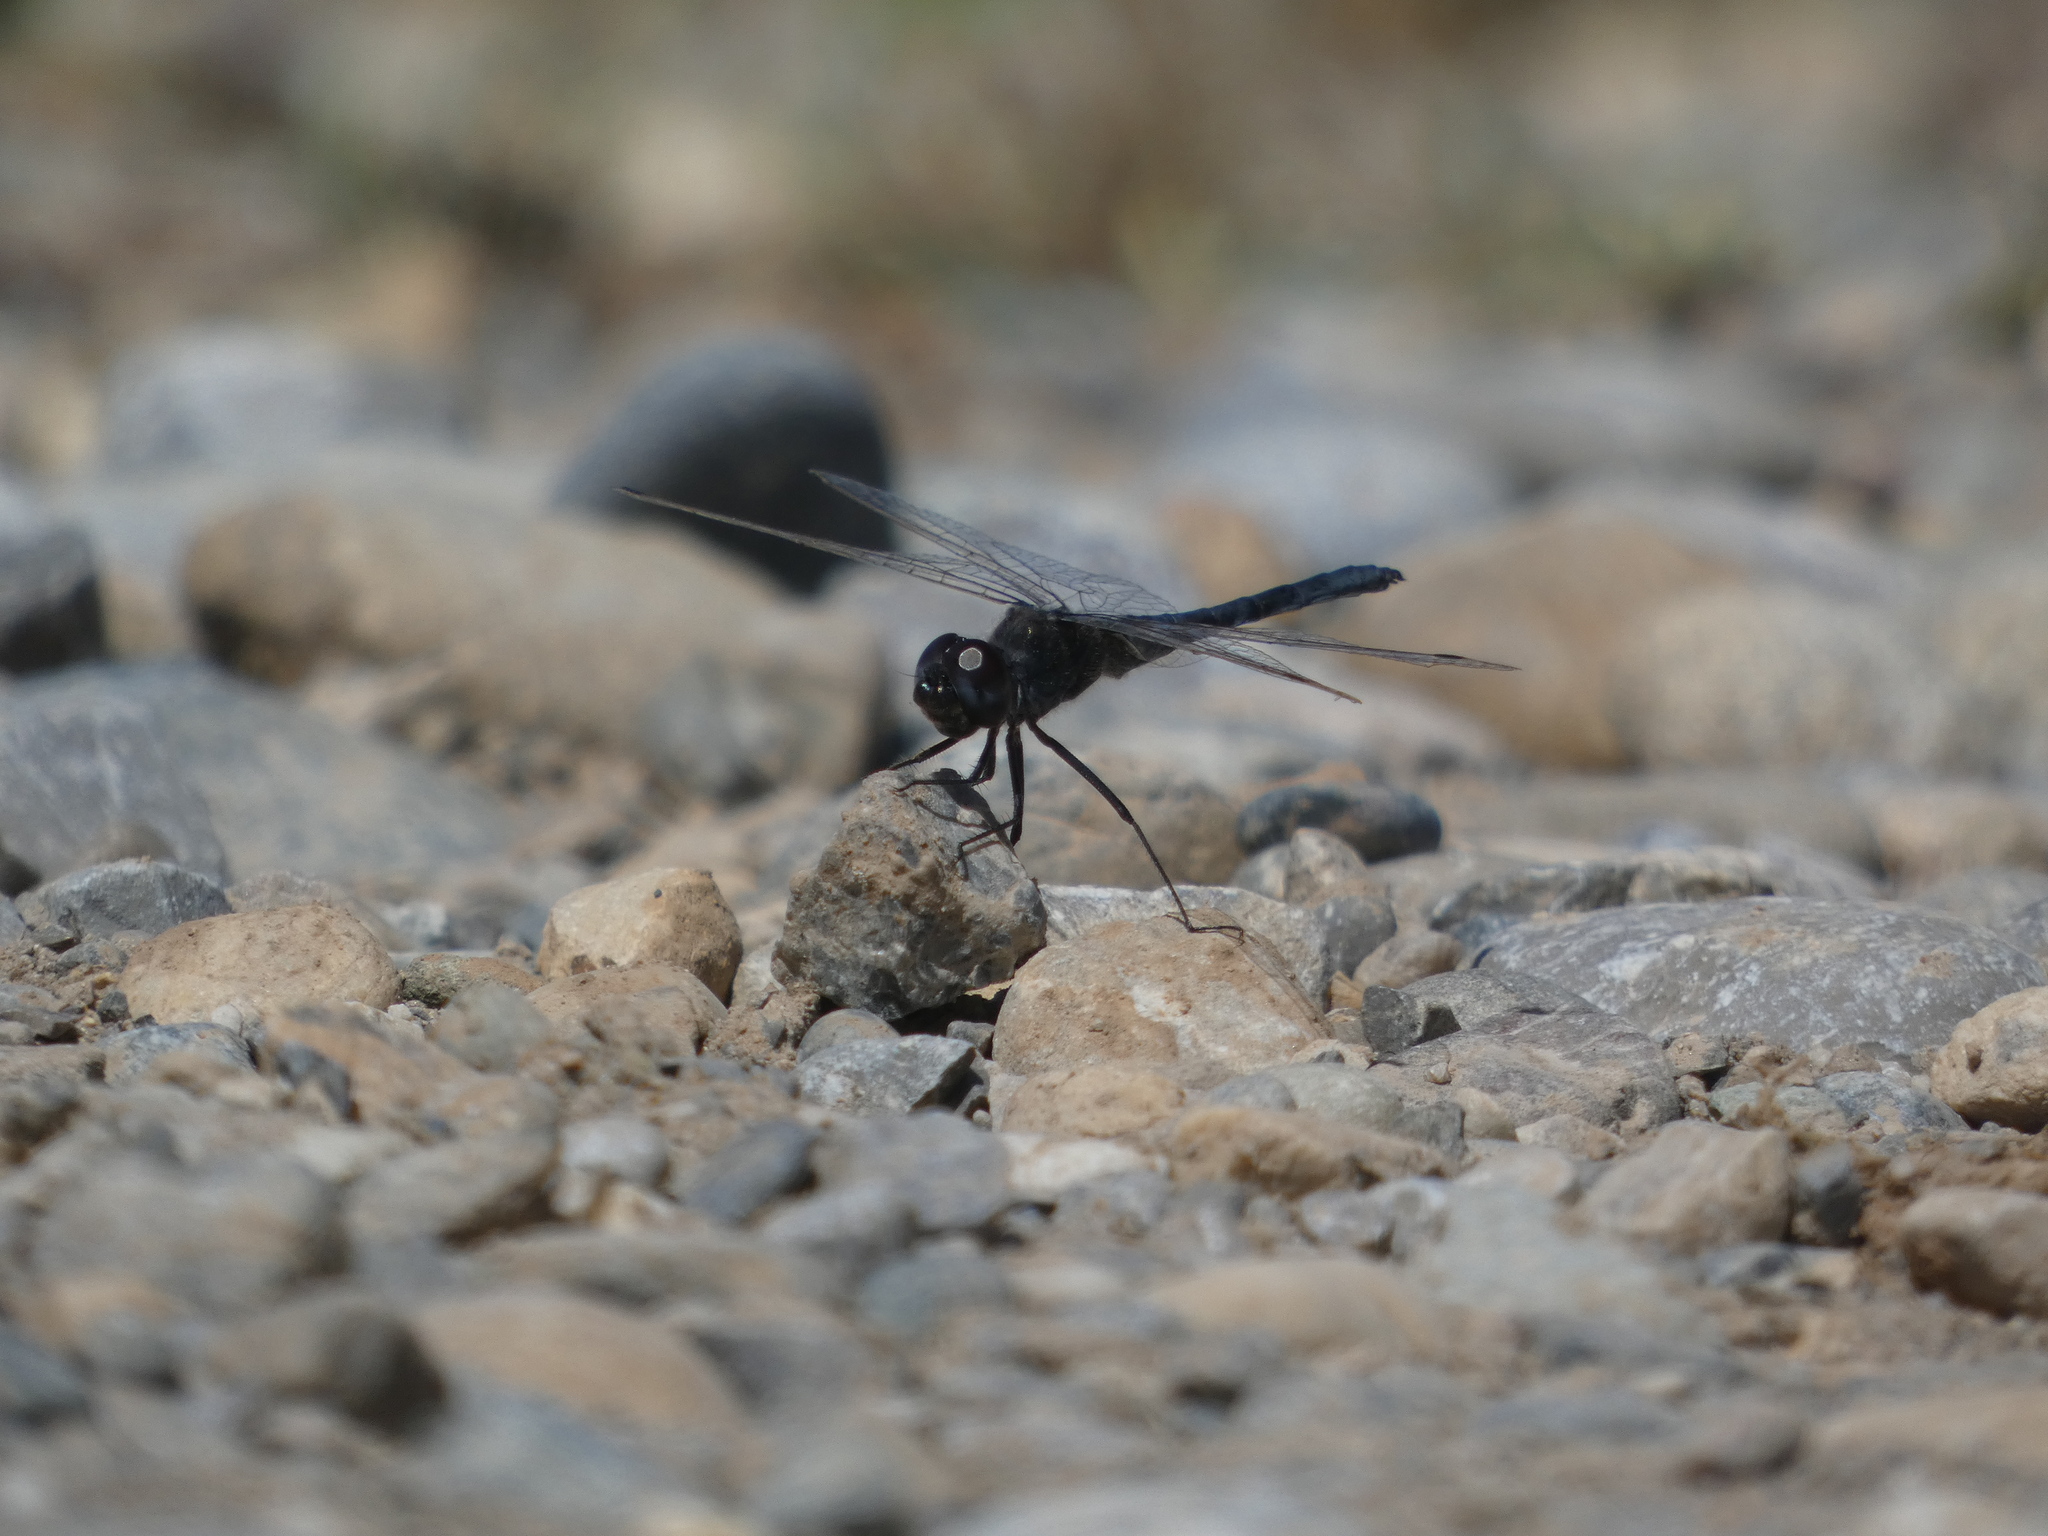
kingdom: Animalia
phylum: Arthropoda
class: Insecta
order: Odonata
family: Libellulidae
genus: Selysiothemis
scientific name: Selysiothemis nigra
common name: Black pennant
